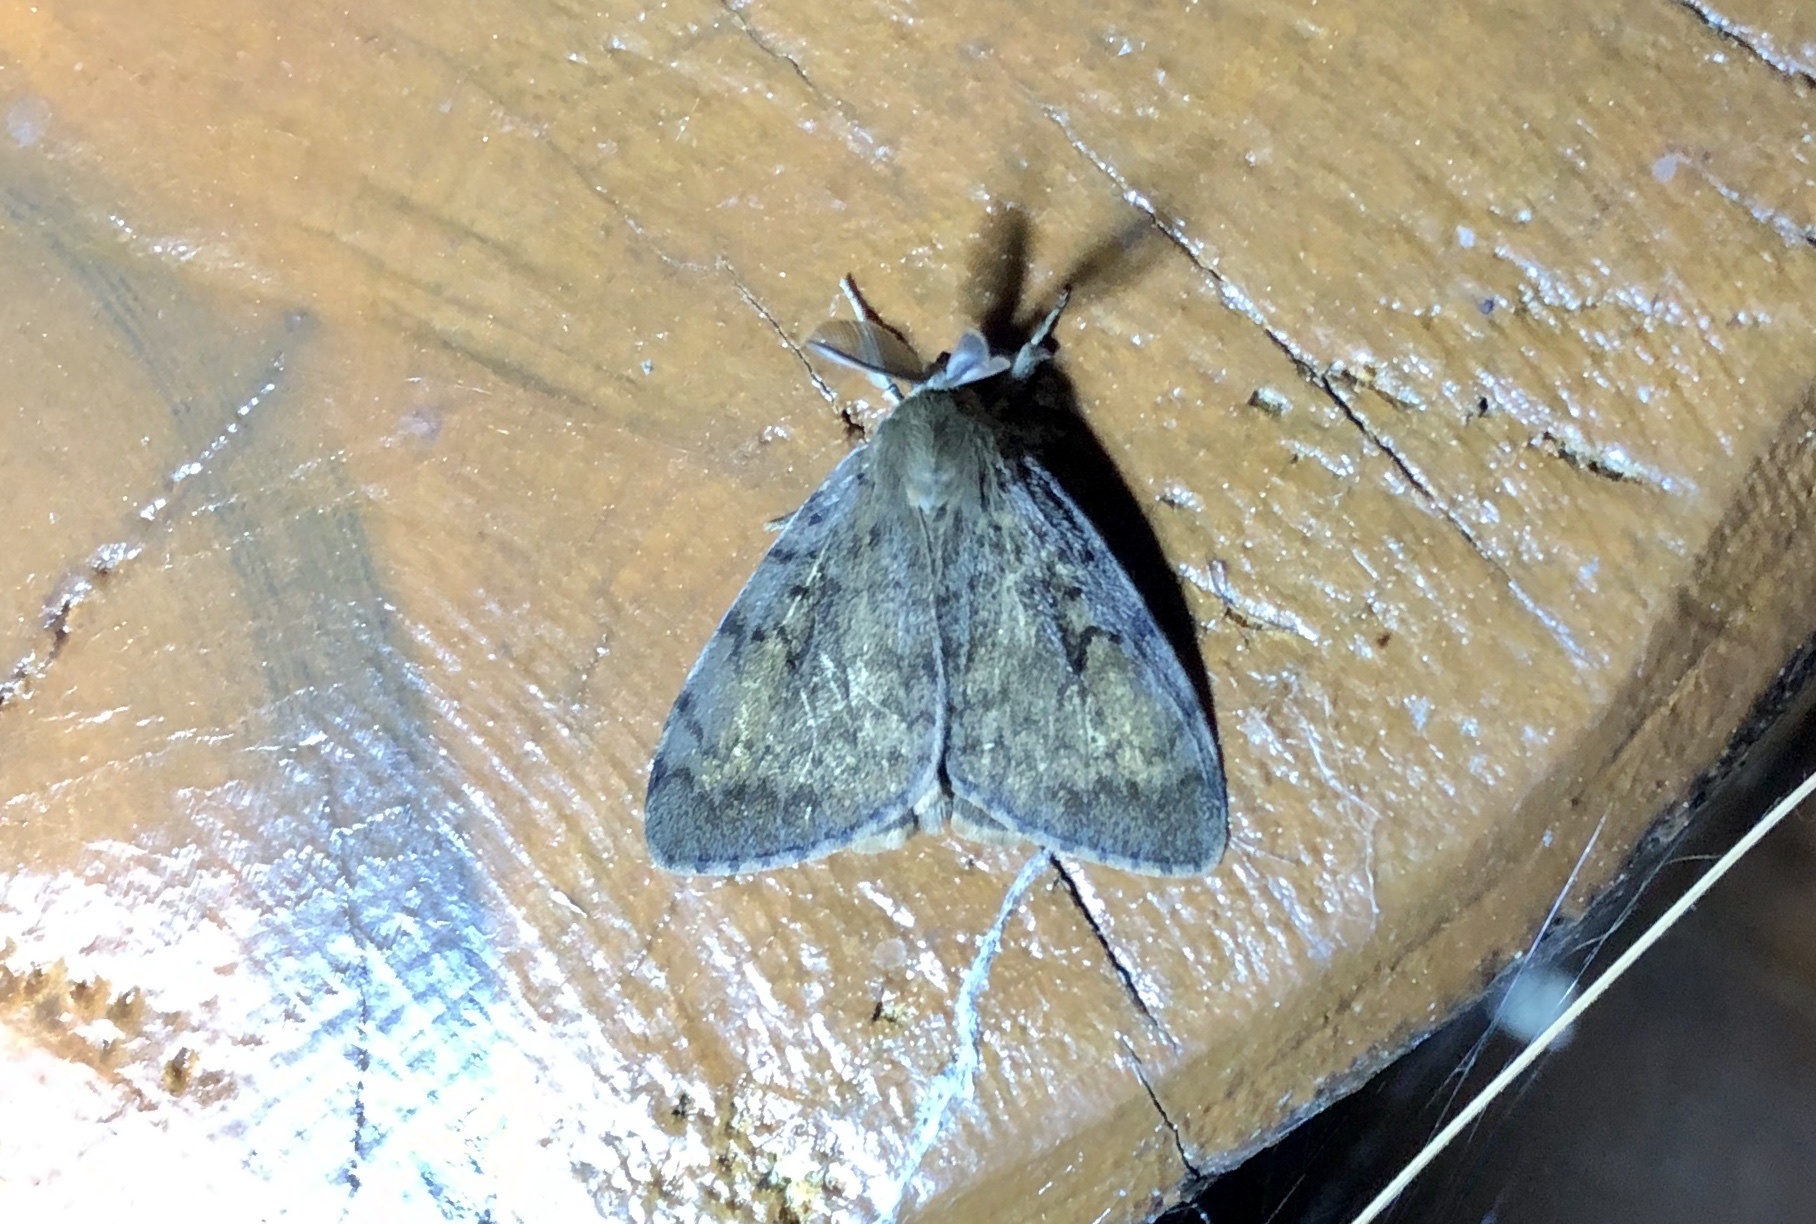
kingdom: Animalia
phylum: Arthropoda
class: Insecta
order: Lepidoptera
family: Erebidae
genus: Lymantria
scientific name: Lymantria dispar
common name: Gypsy moth
